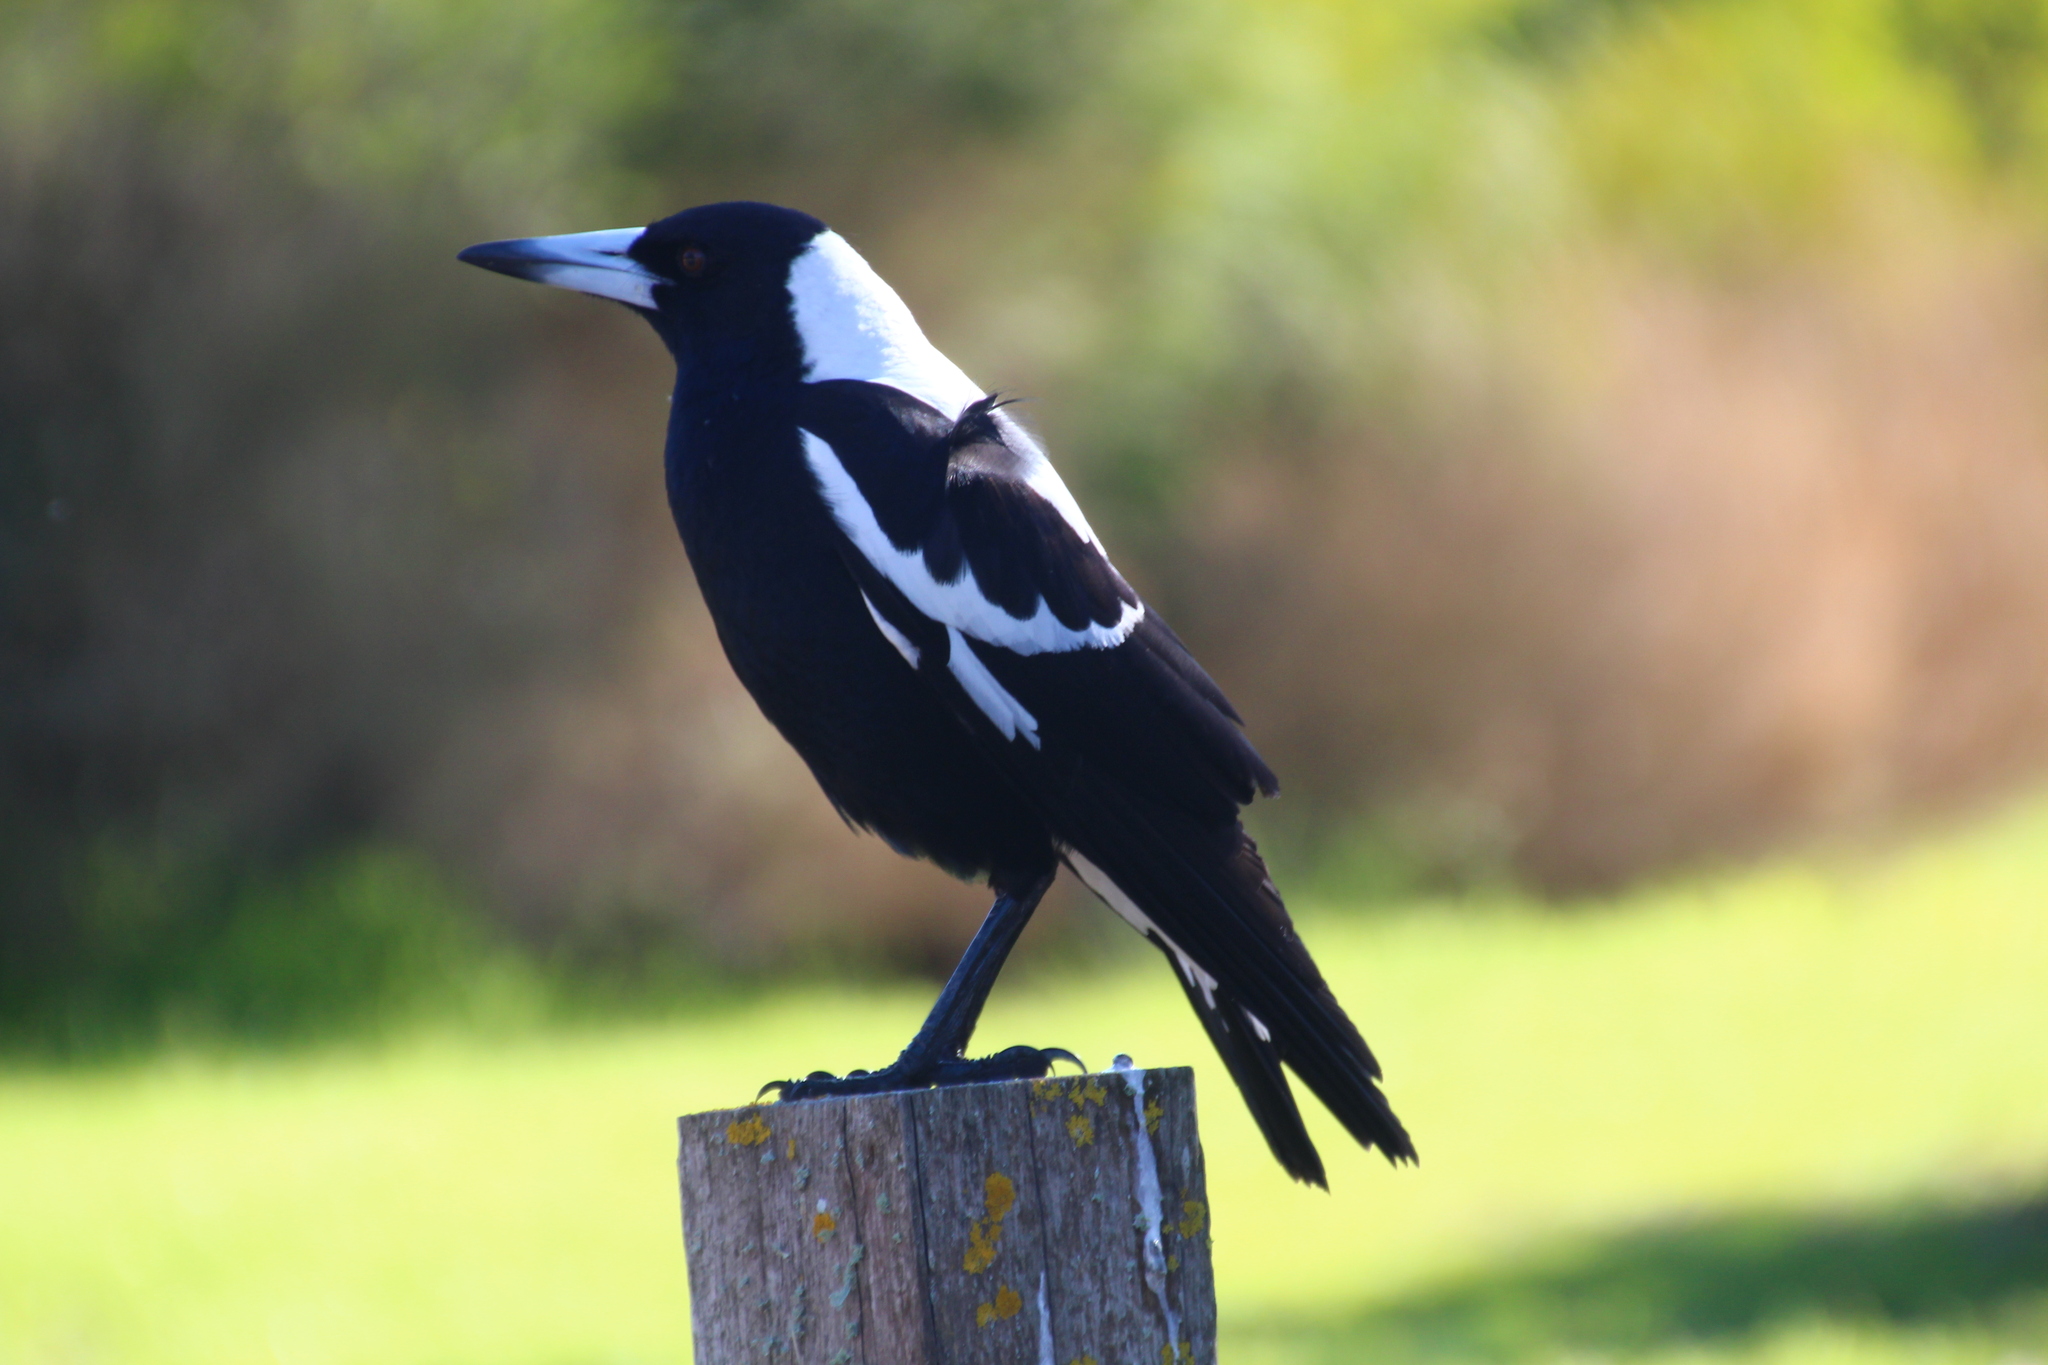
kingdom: Animalia
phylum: Chordata
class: Aves
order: Passeriformes
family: Cracticidae
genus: Gymnorhina
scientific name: Gymnorhina tibicen
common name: Australian magpie
